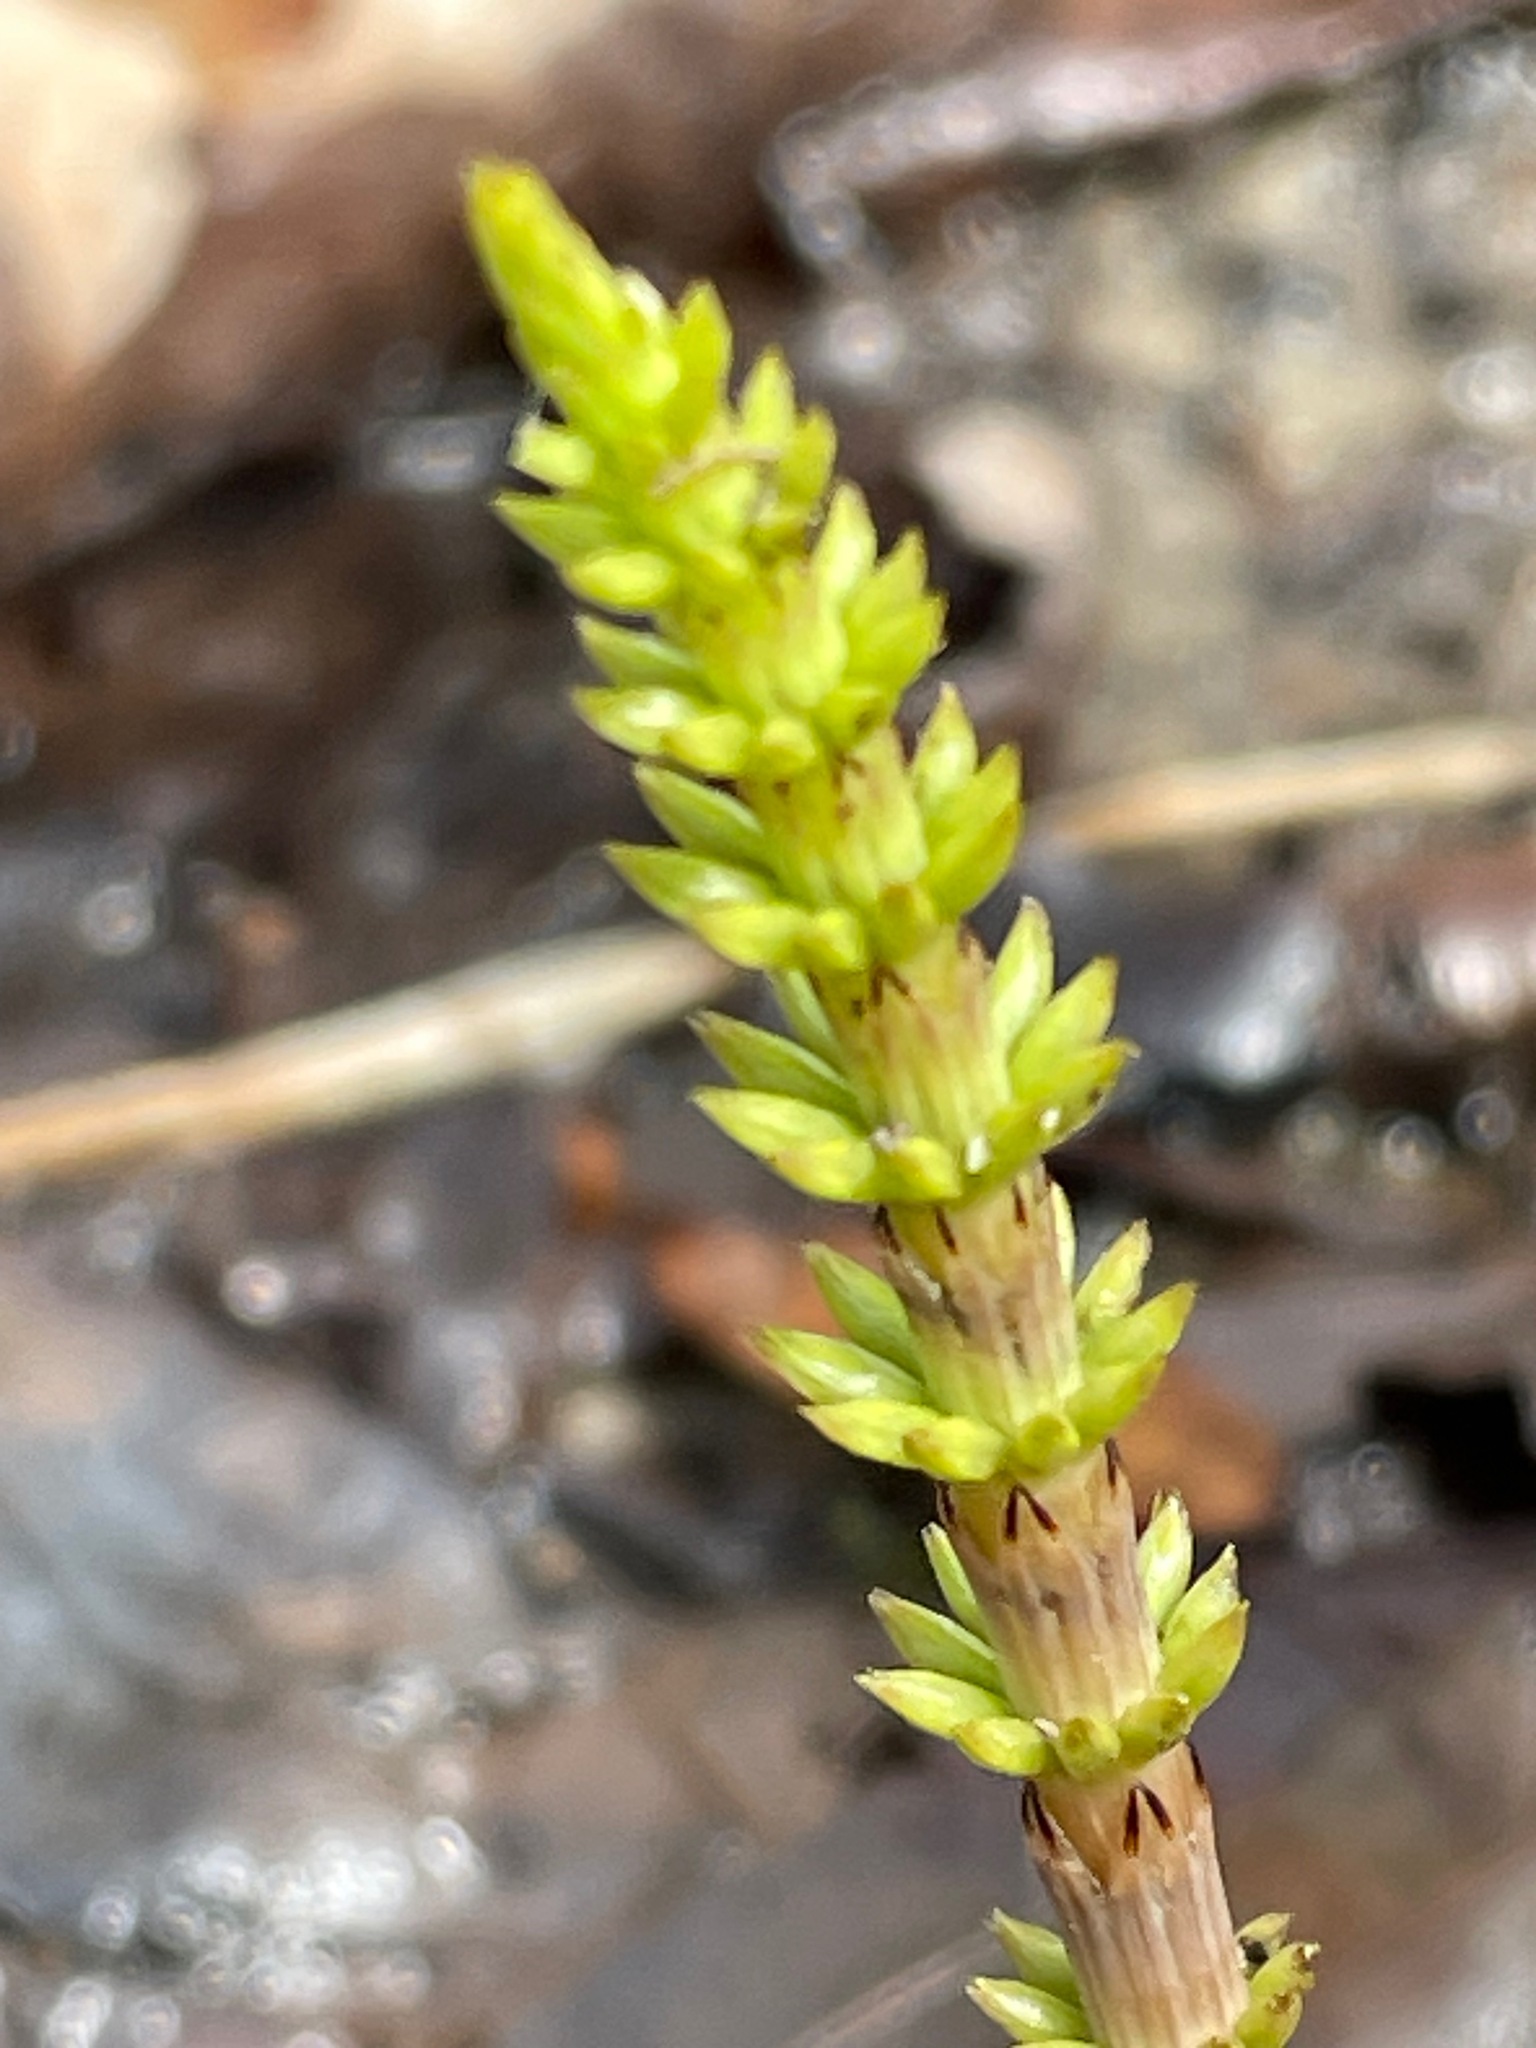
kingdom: Plantae
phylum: Tracheophyta
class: Polypodiopsida
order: Equisetales
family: Equisetaceae
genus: Equisetum
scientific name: Equisetum arvense
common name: Field horsetail
